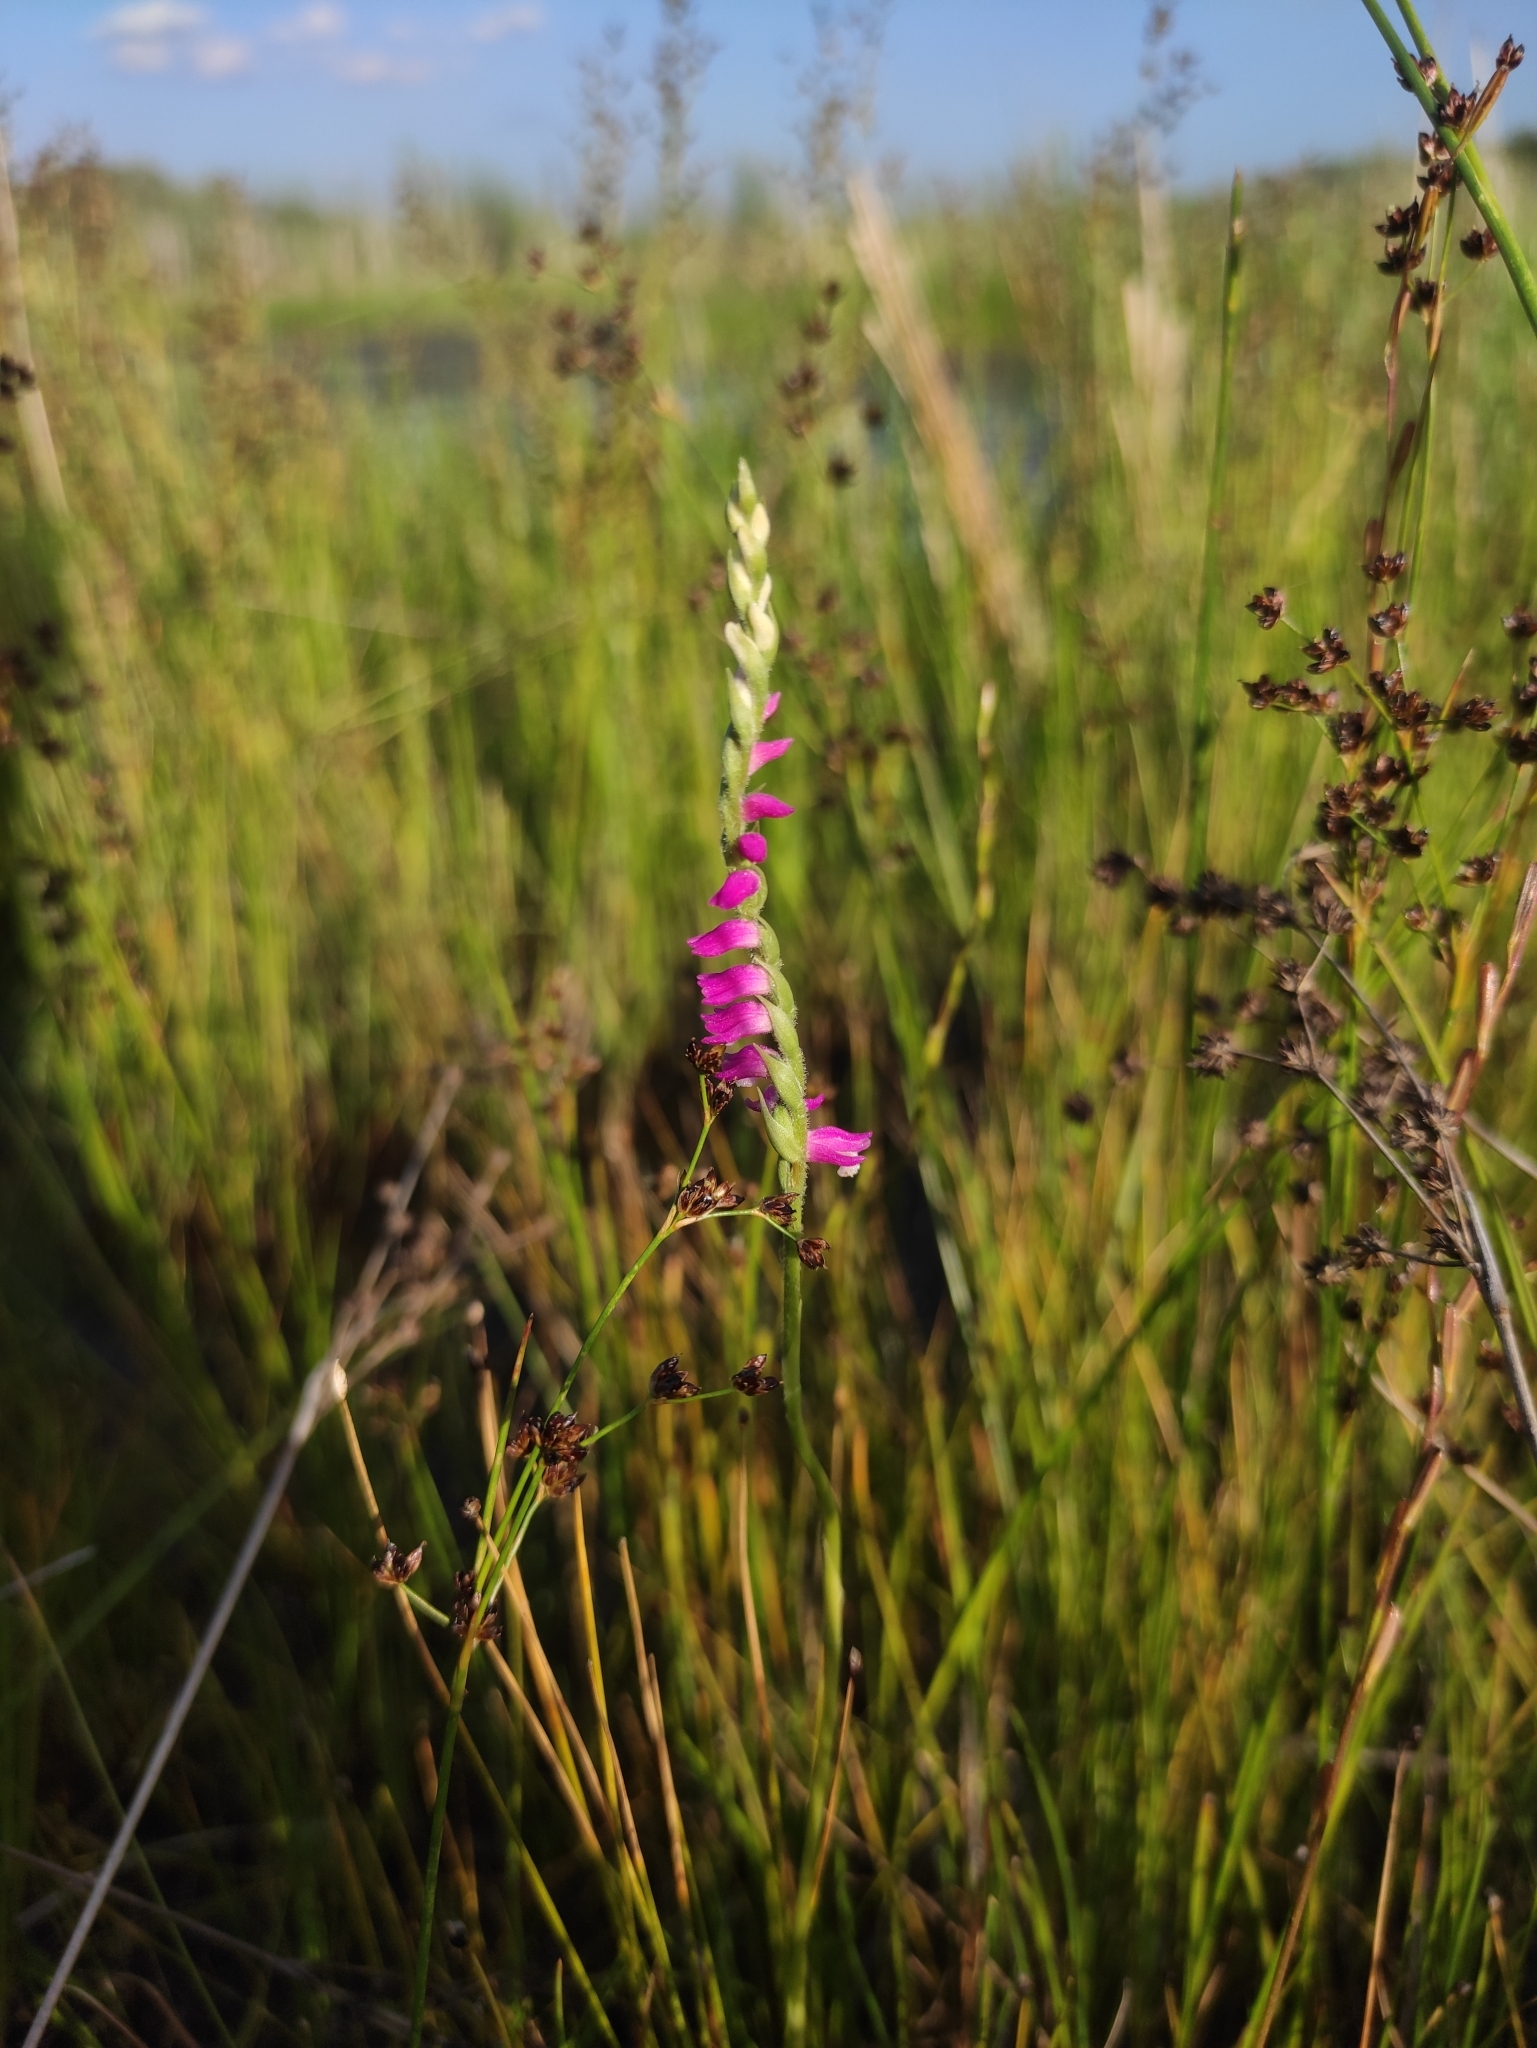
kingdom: Plantae
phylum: Tracheophyta
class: Liliopsida
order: Asparagales
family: Orchidaceae
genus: Spiranthes
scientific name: Spiranthes australis
